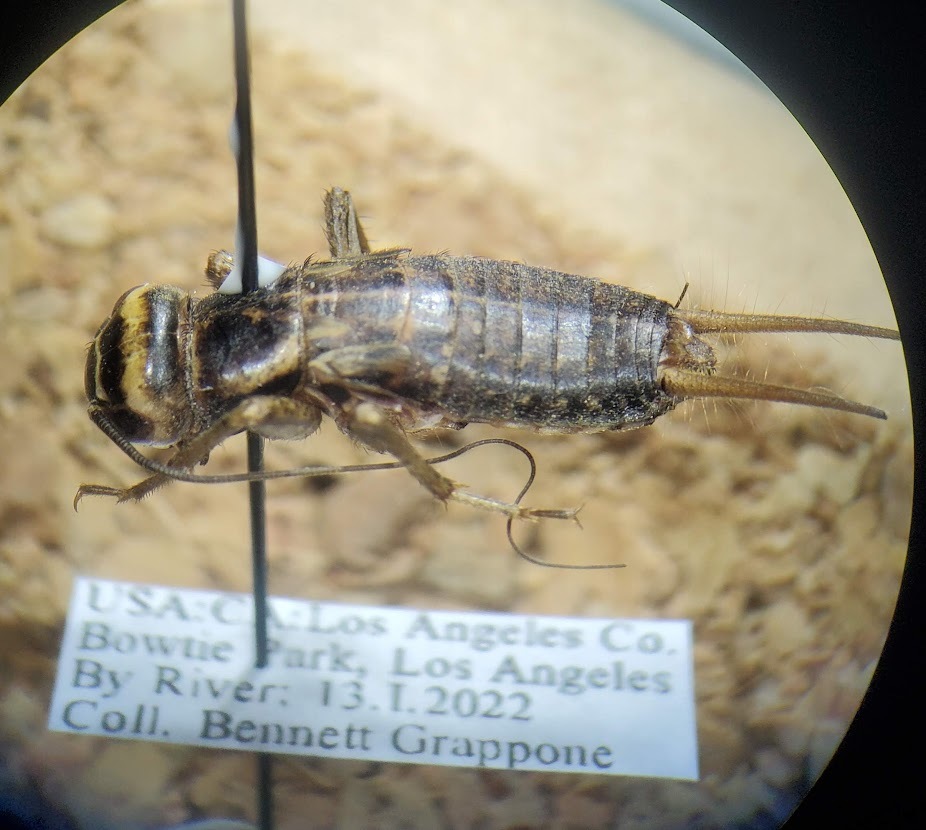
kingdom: Animalia
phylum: Arthropoda
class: Insecta
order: Orthoptera
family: Gryllidae
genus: Acheta
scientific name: Acheta domesticus
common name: House cricket
